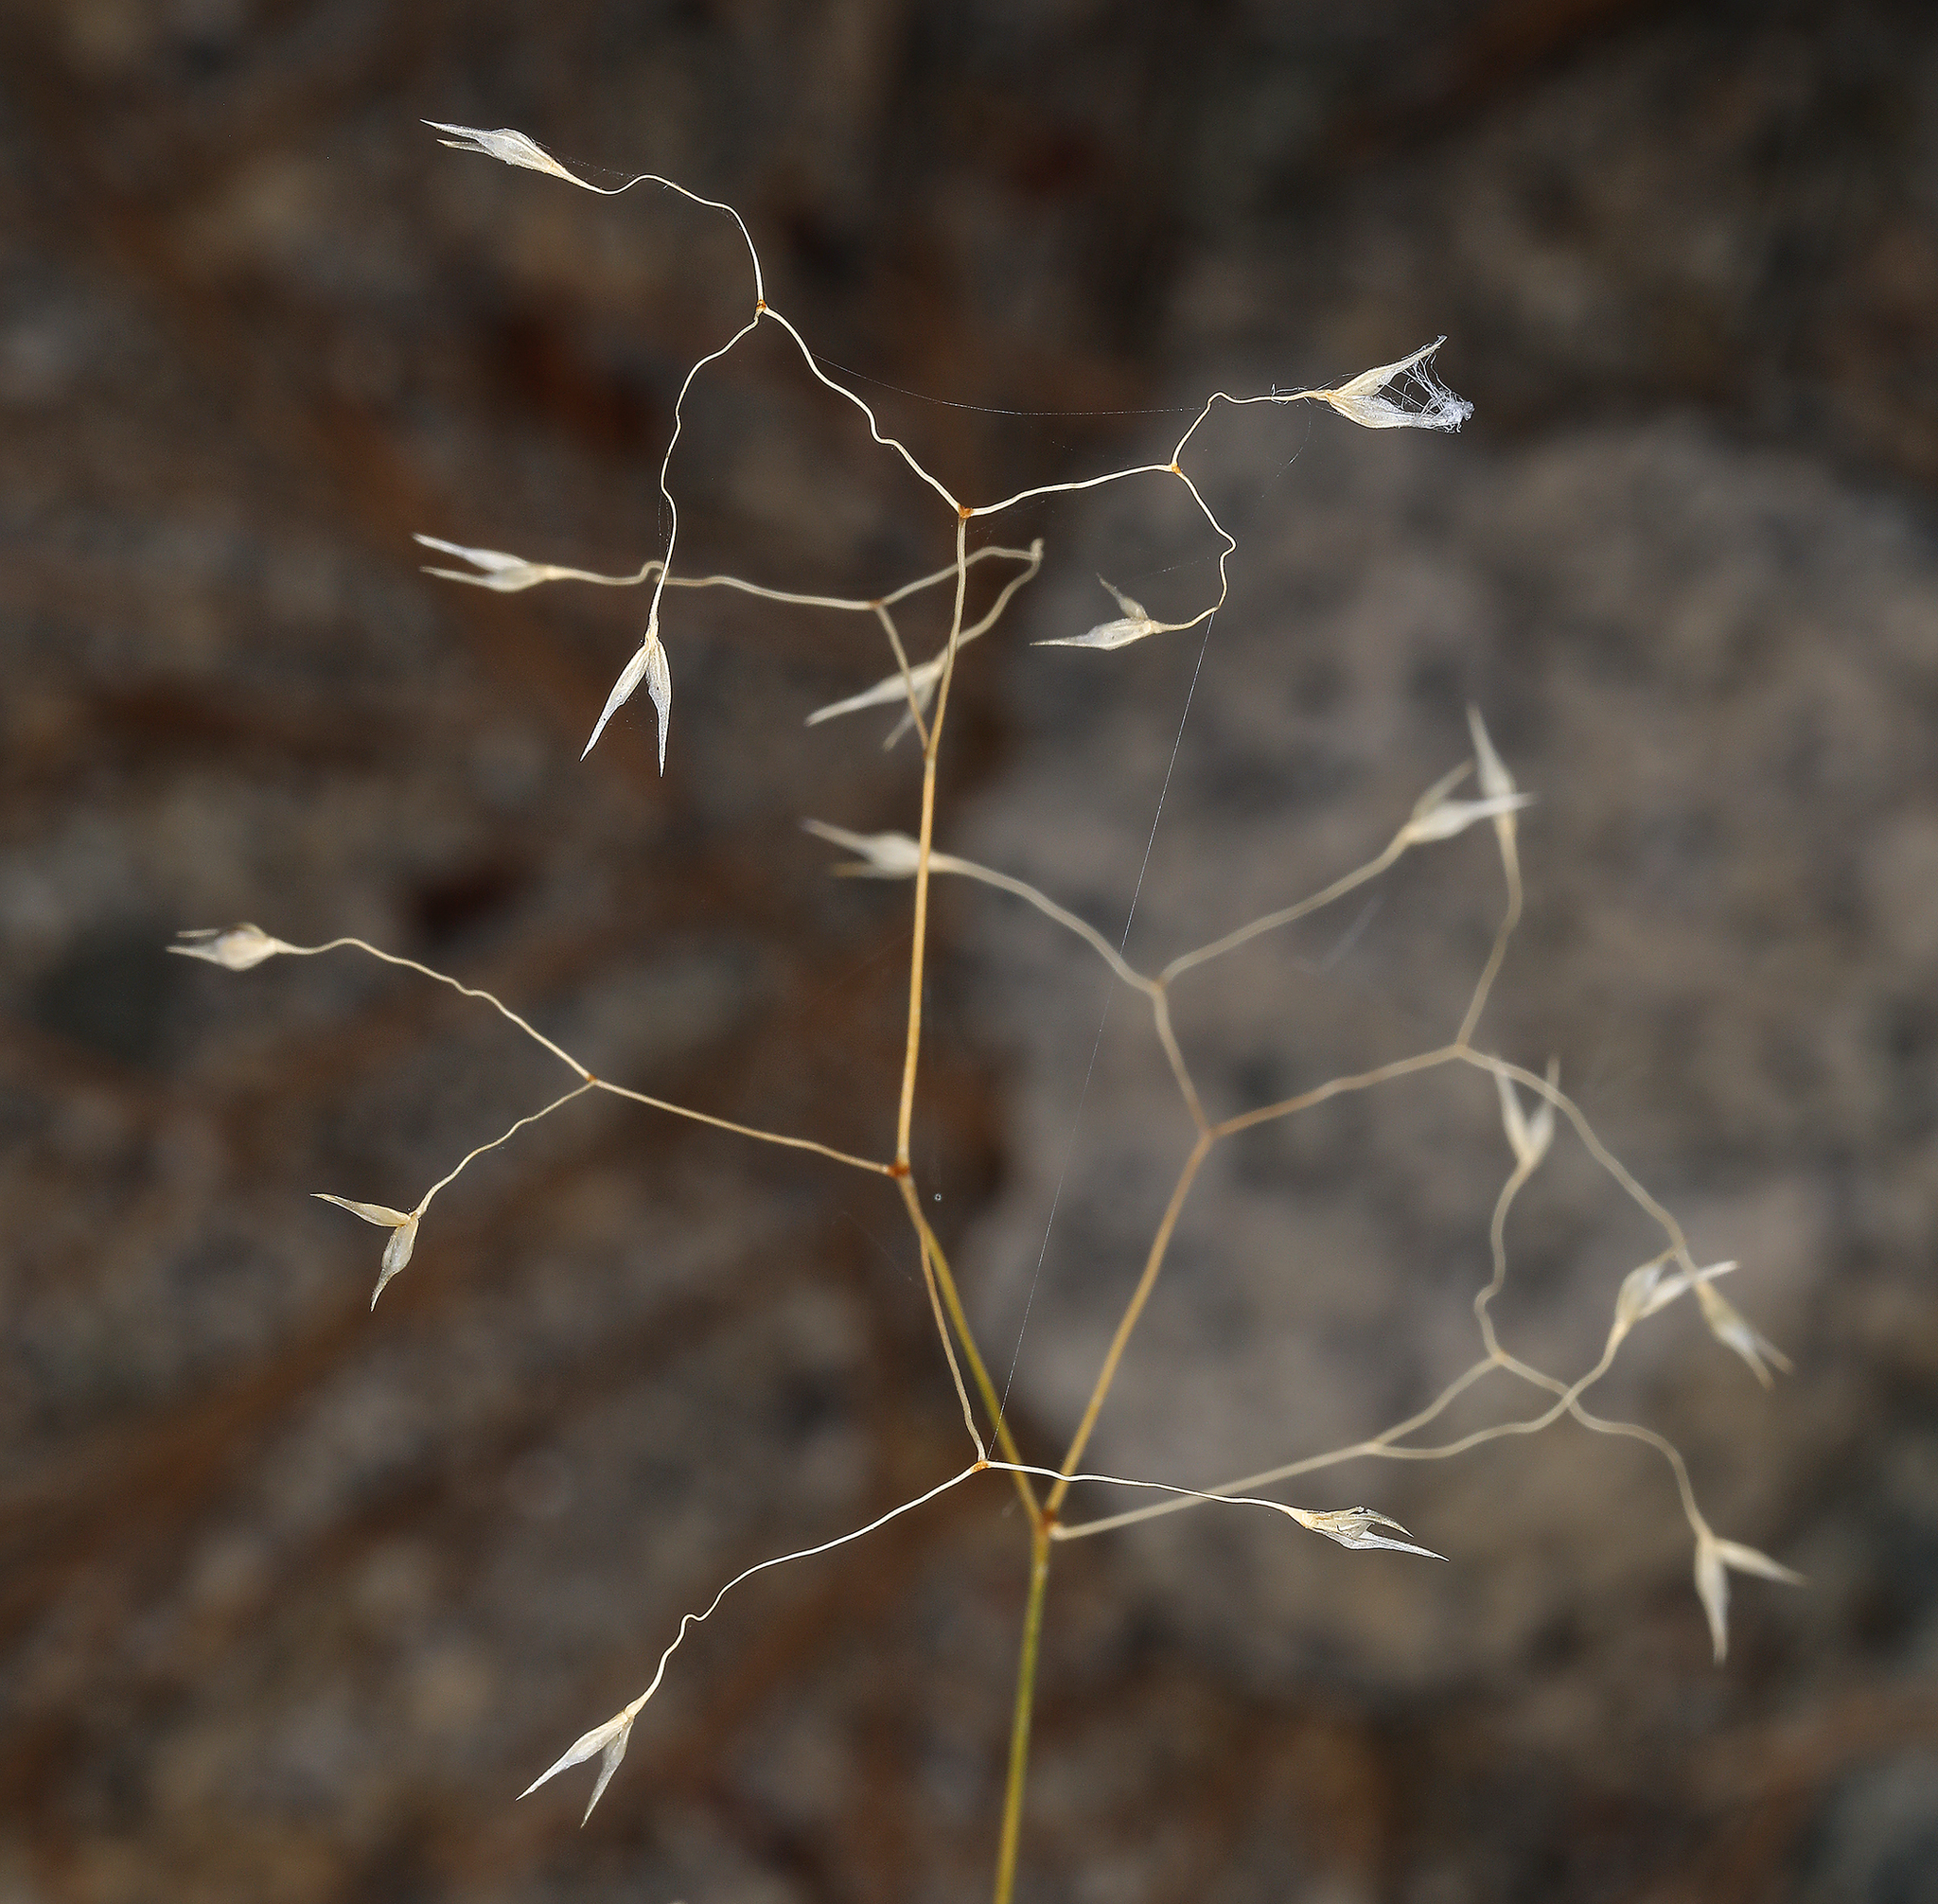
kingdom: Plantae
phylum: Tracheophyta
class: Liliopsida
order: Poales
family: Poaceae
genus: Eriocoma
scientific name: Eriocoma hymenoides
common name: Indian mountain ricegrass
